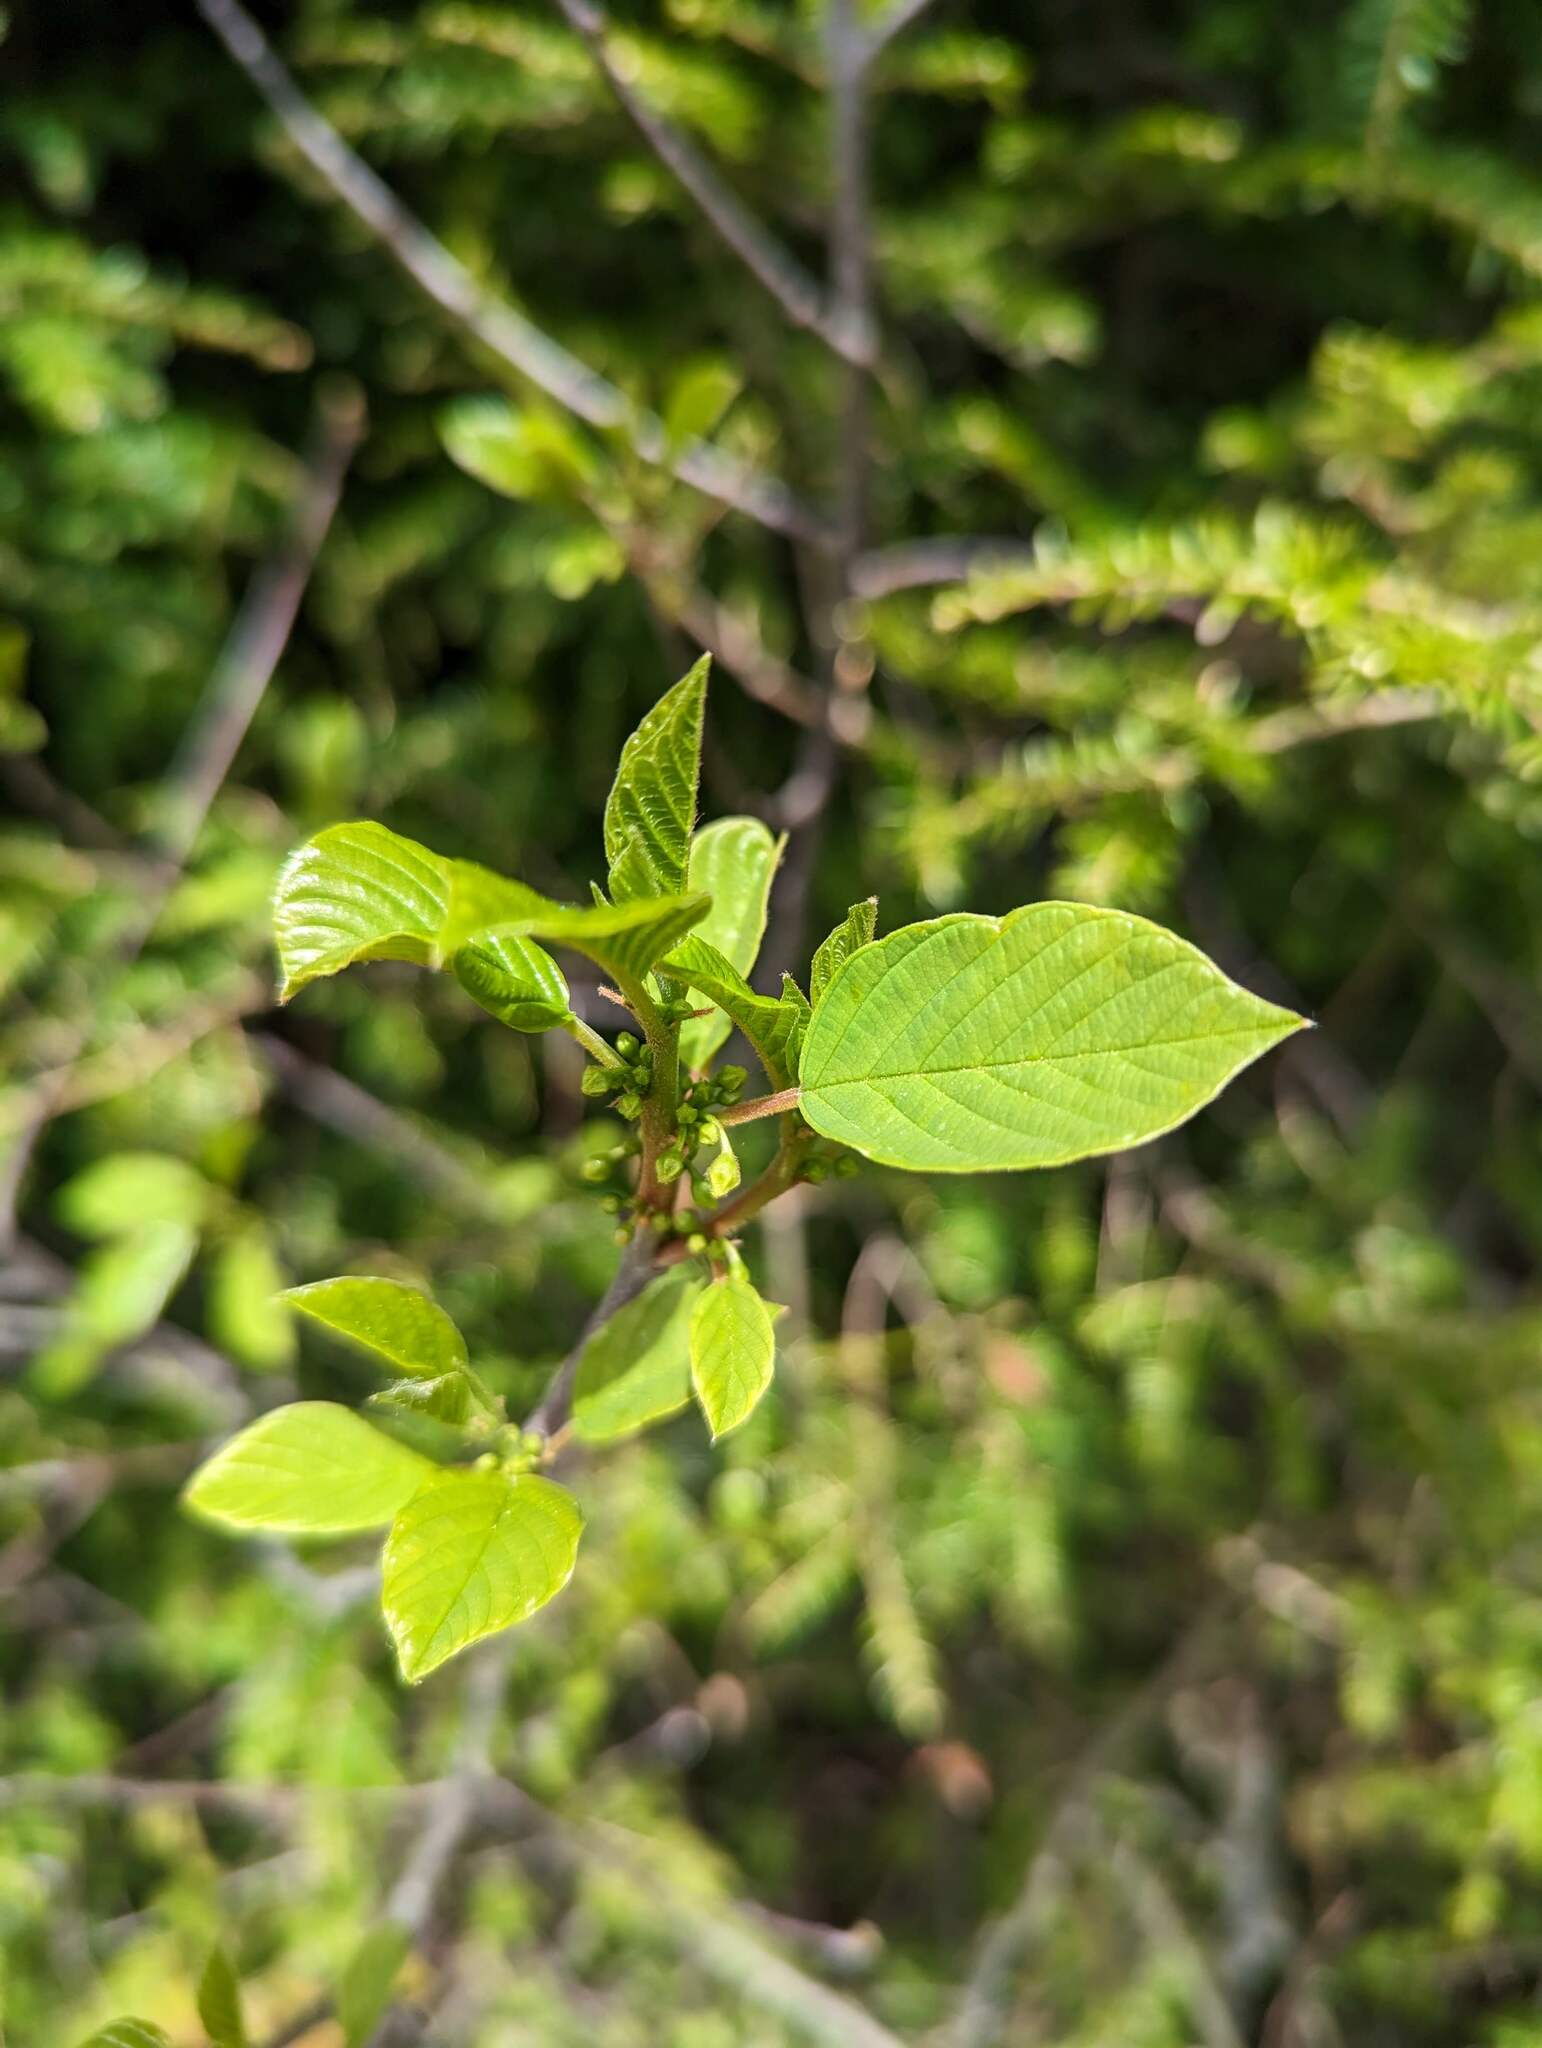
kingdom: Plantae
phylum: Tracheophyta
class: Magnoliopsida
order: Rosales
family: Rhamnaceae
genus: Frangula
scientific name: Frangula alnus
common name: Alder buckthorn
